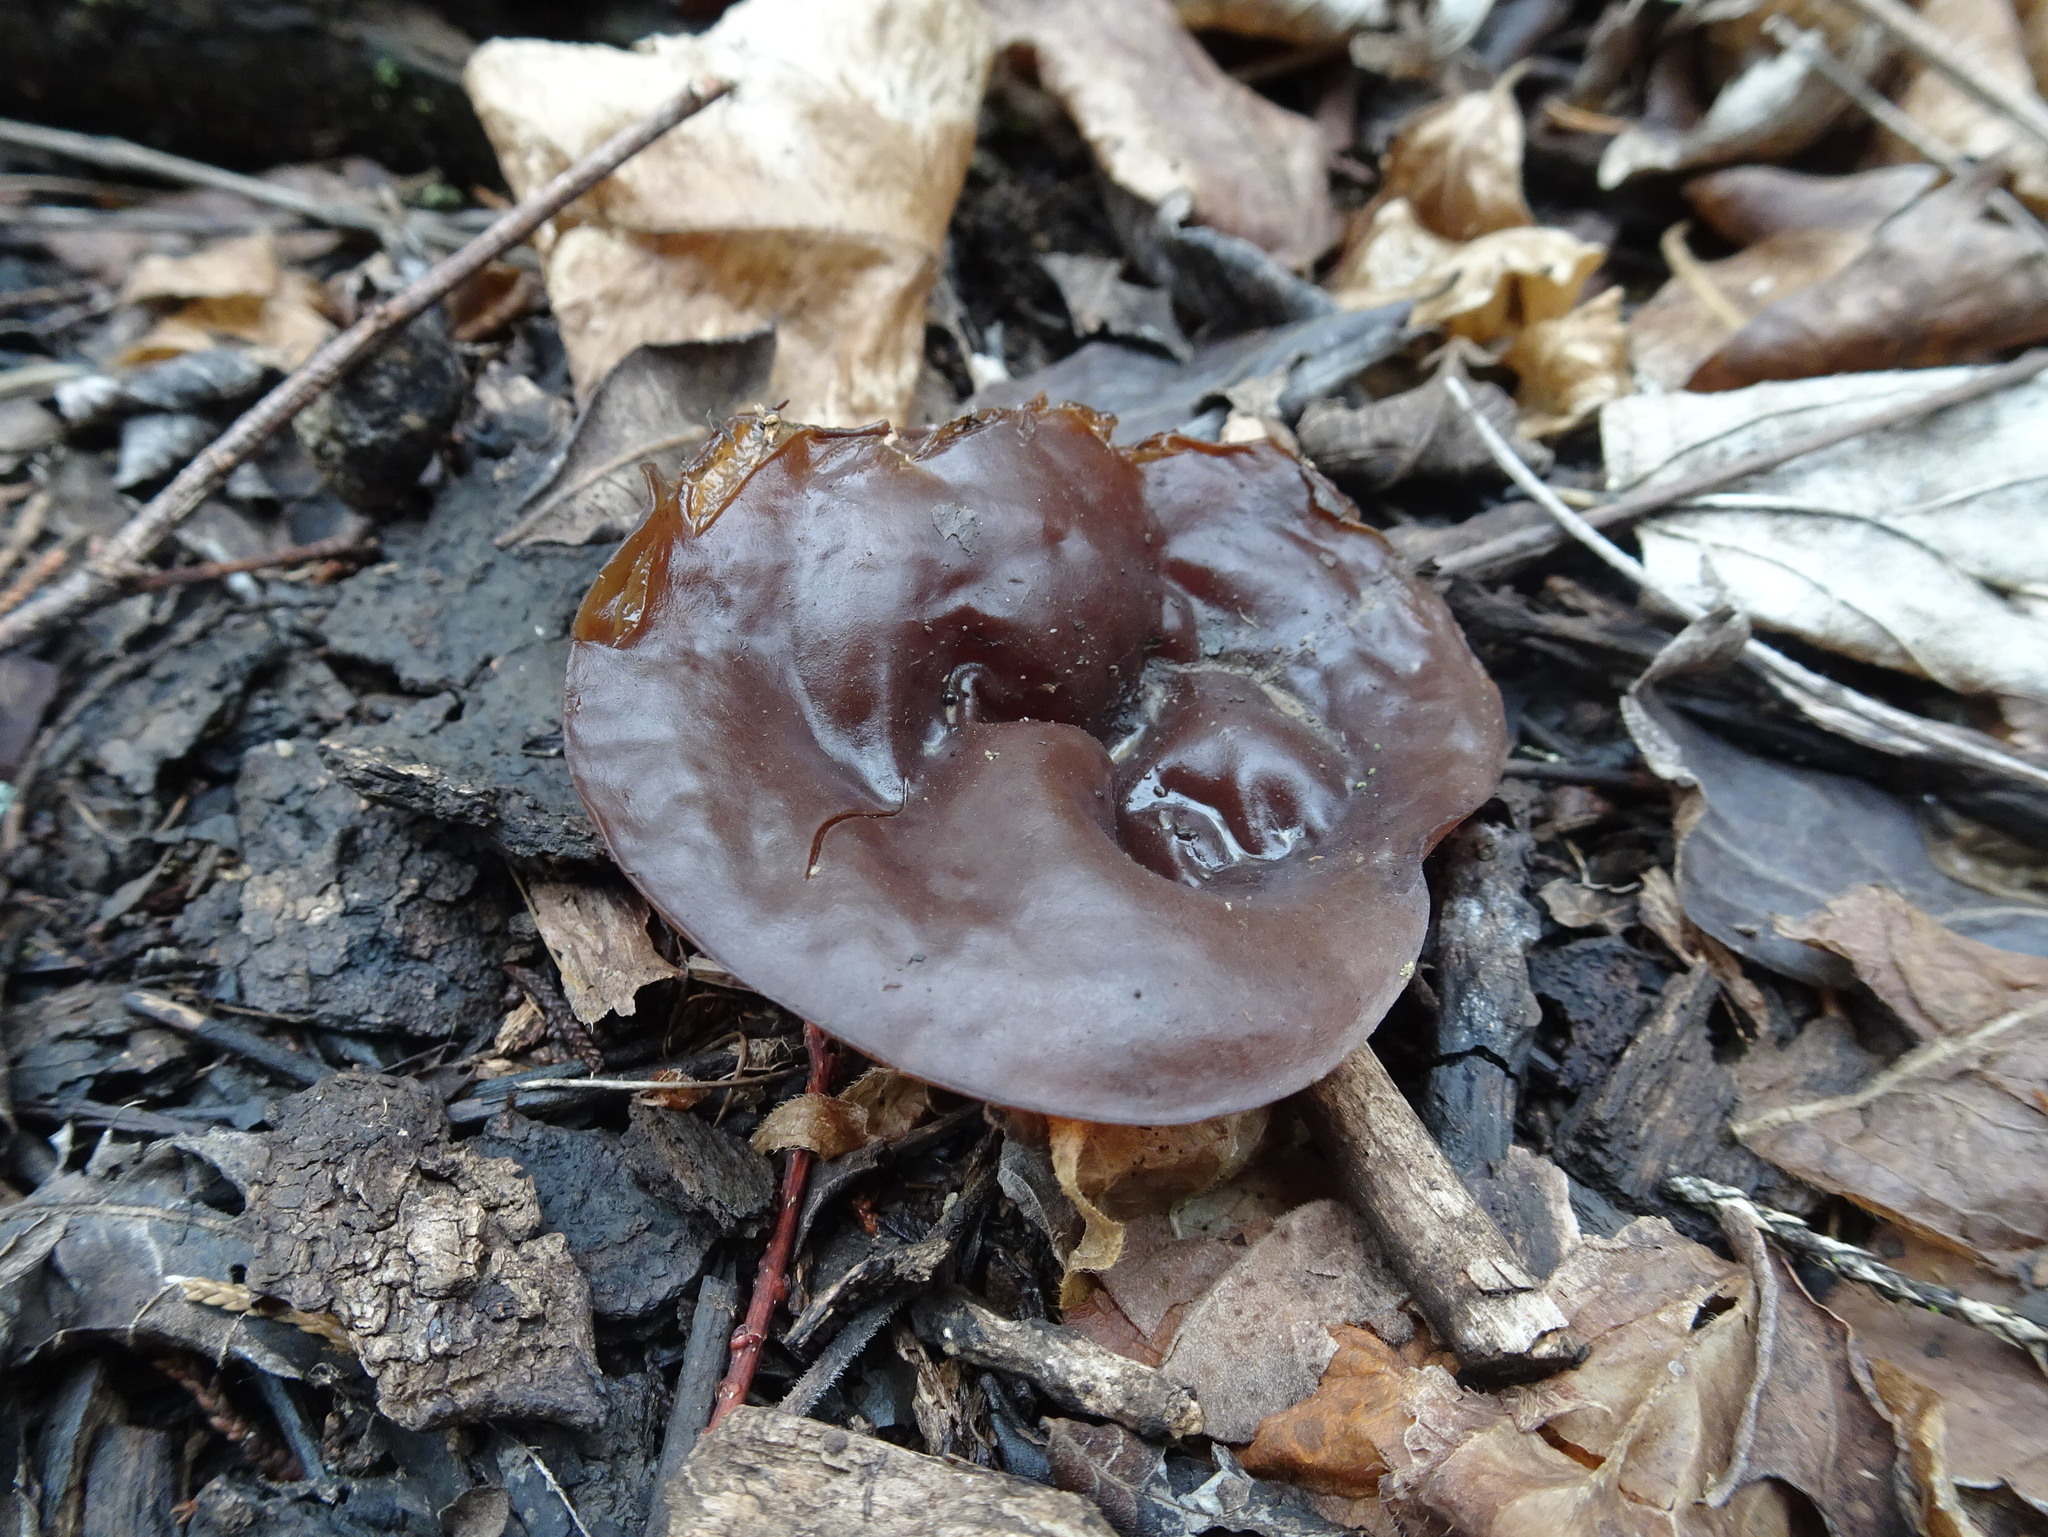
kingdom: Fungi
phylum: Basidiomycota
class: Agaricomycetes
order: Auriculariales
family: Auriculariaceae
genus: Auricularia
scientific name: Auricularia americana
